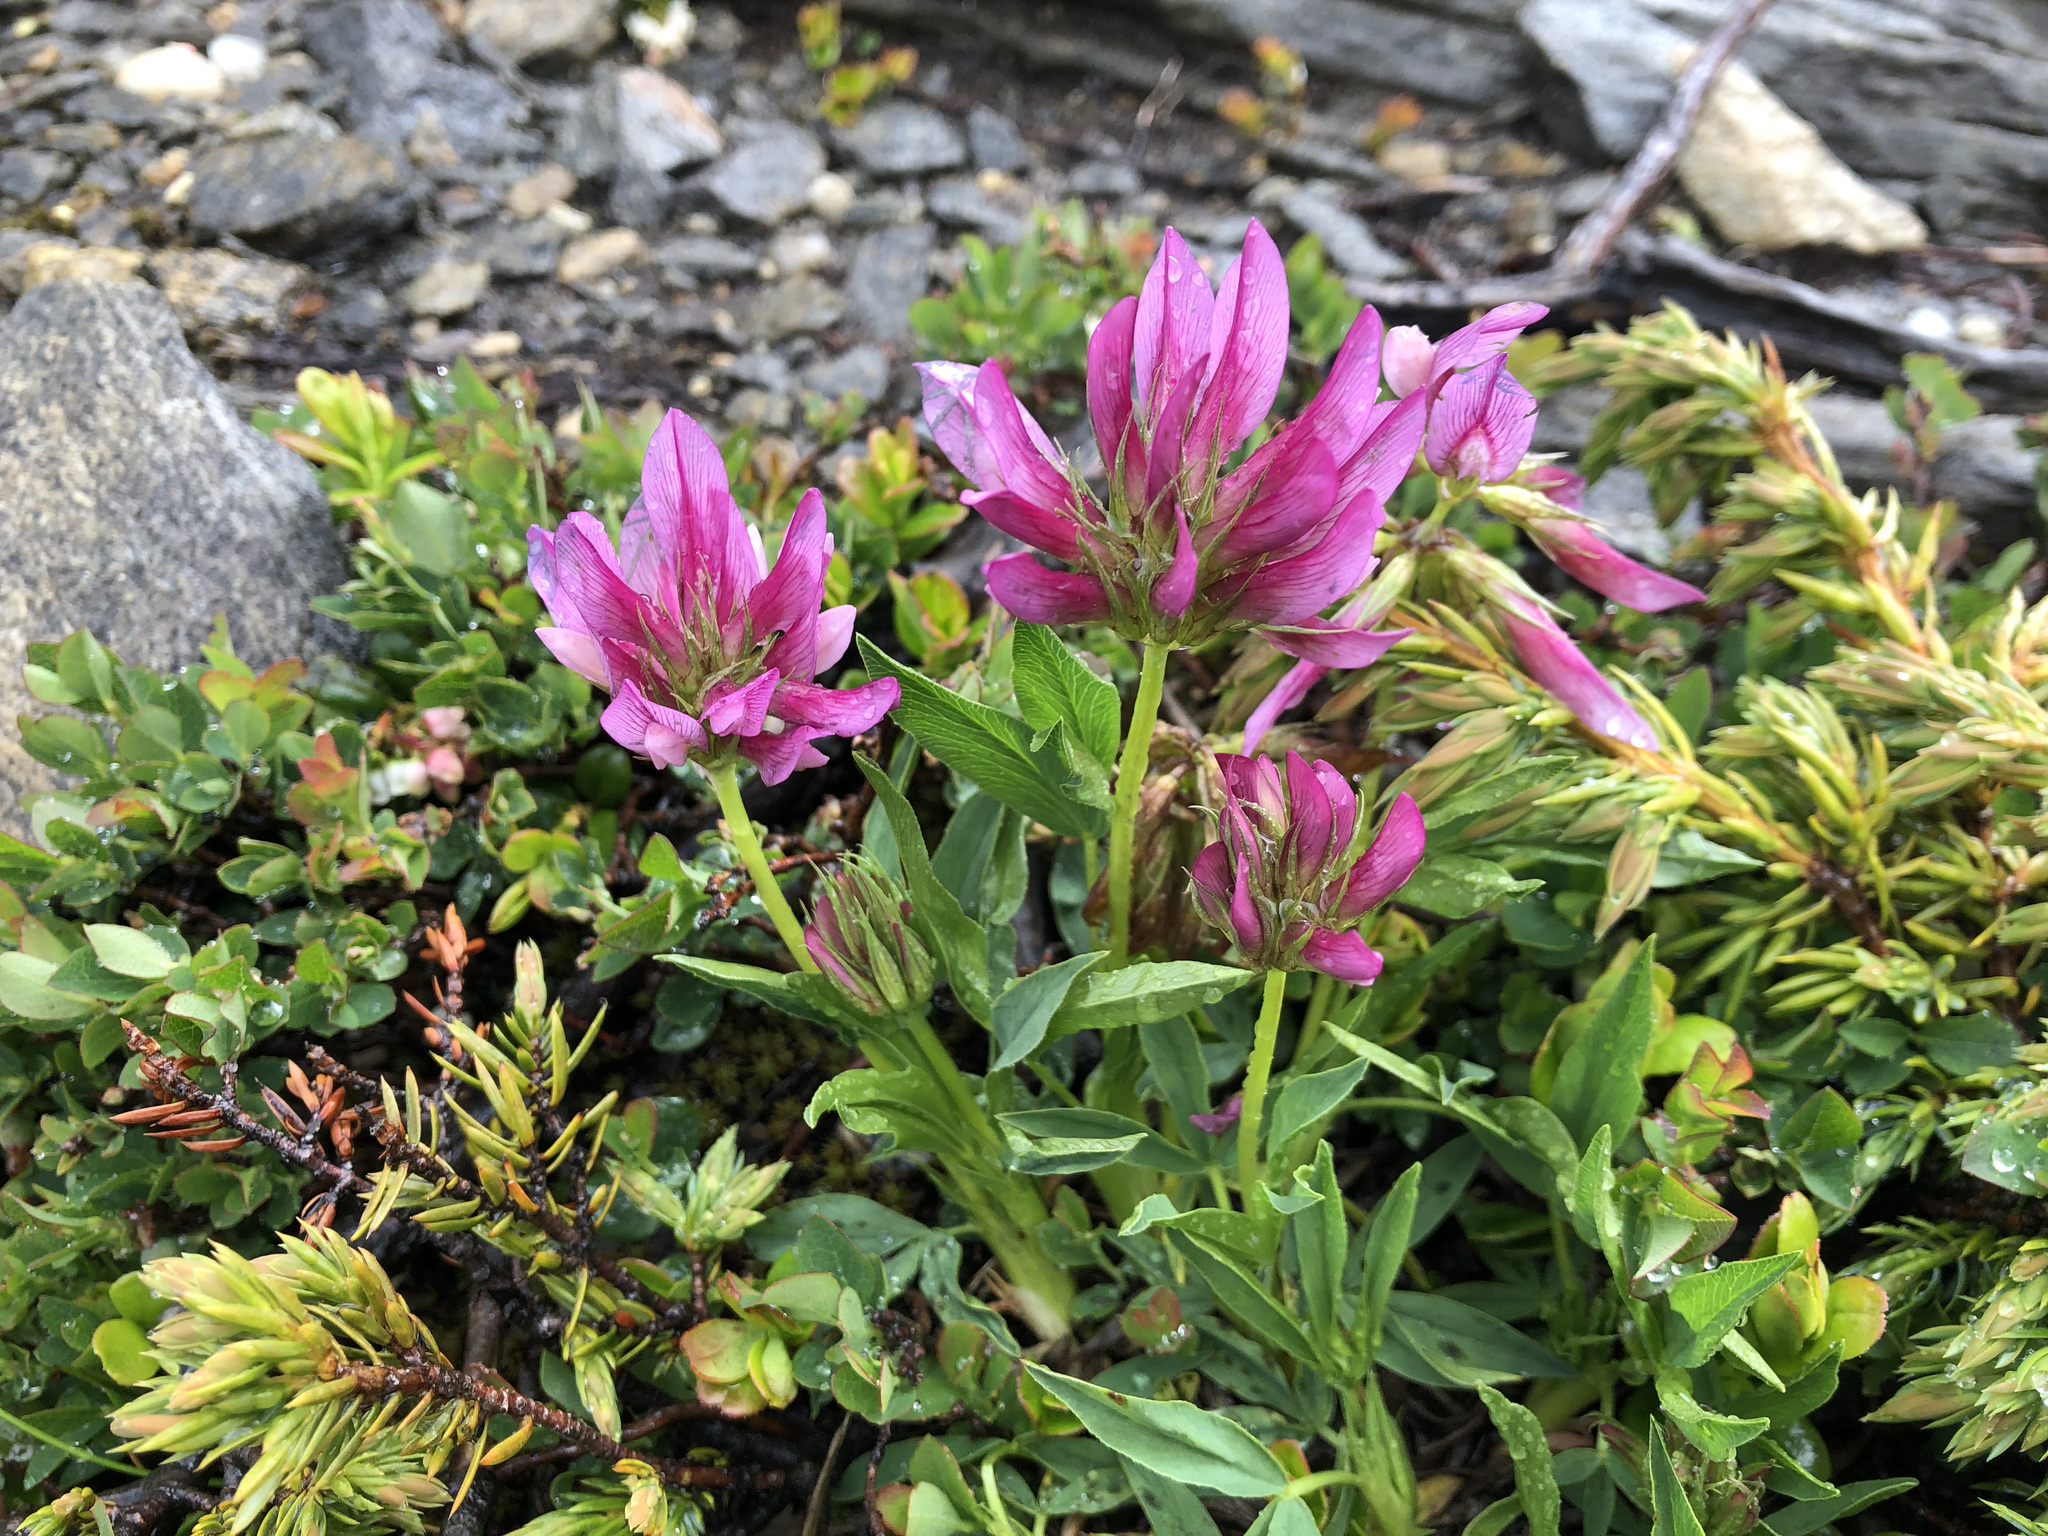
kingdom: Plantae
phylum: Tracheophyta
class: Magnoliopsida
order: Fabales
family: Fabaceae
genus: Trifolium
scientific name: Trifolium alpinum
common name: Alpine clover
